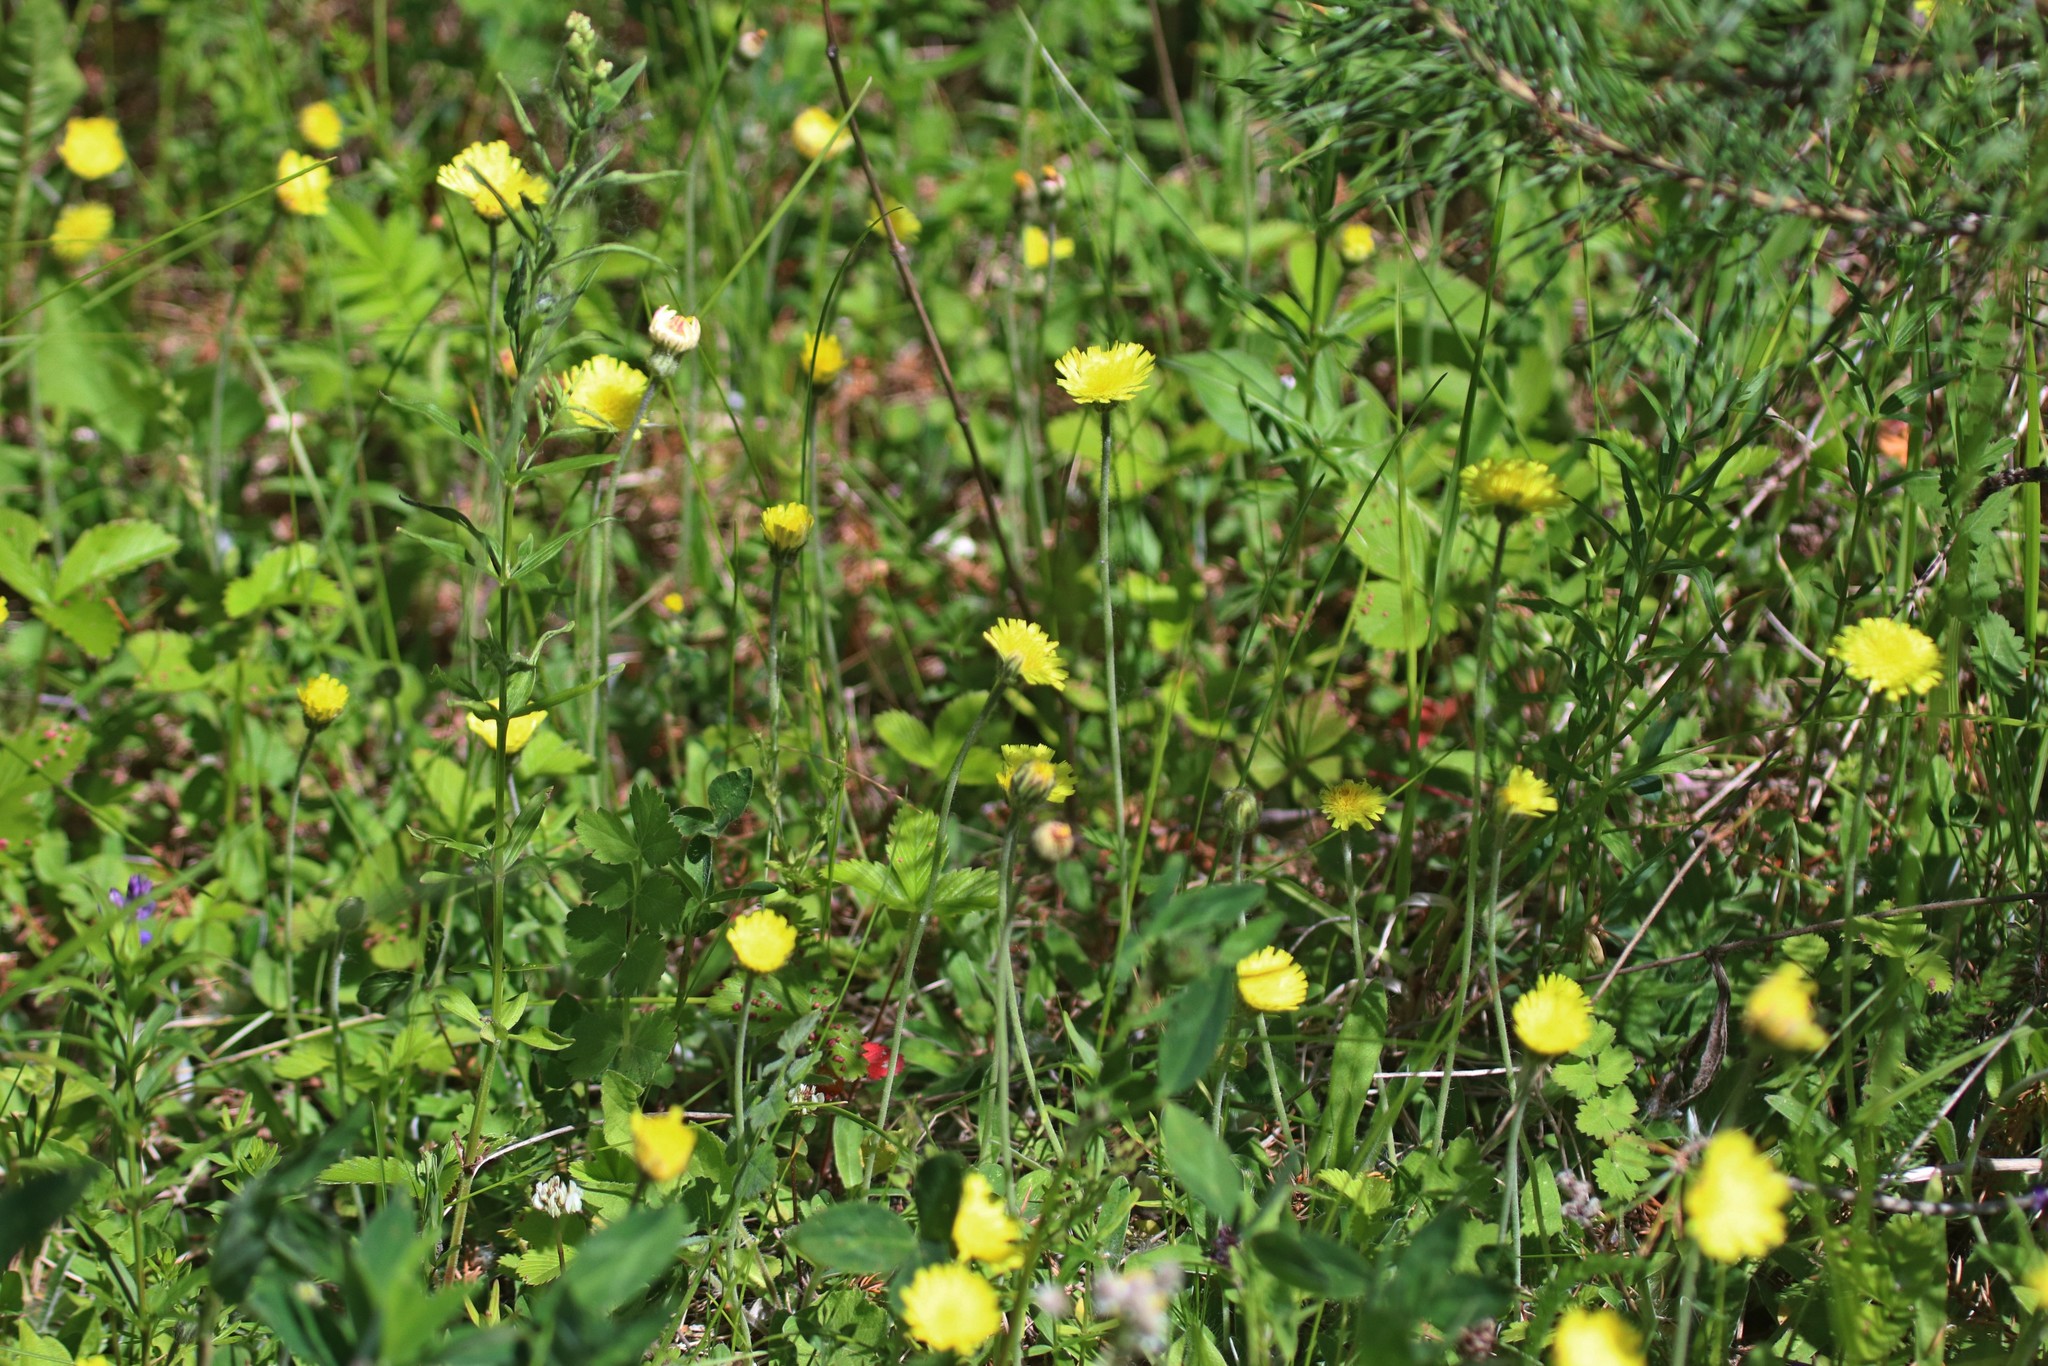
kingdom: Plantae
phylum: Tracheophyta
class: Magnoliopsida
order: Asterales
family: Asteraceae
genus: Pilosella
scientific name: Pilosella officinarum
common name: Mouse-ear hawkweed
